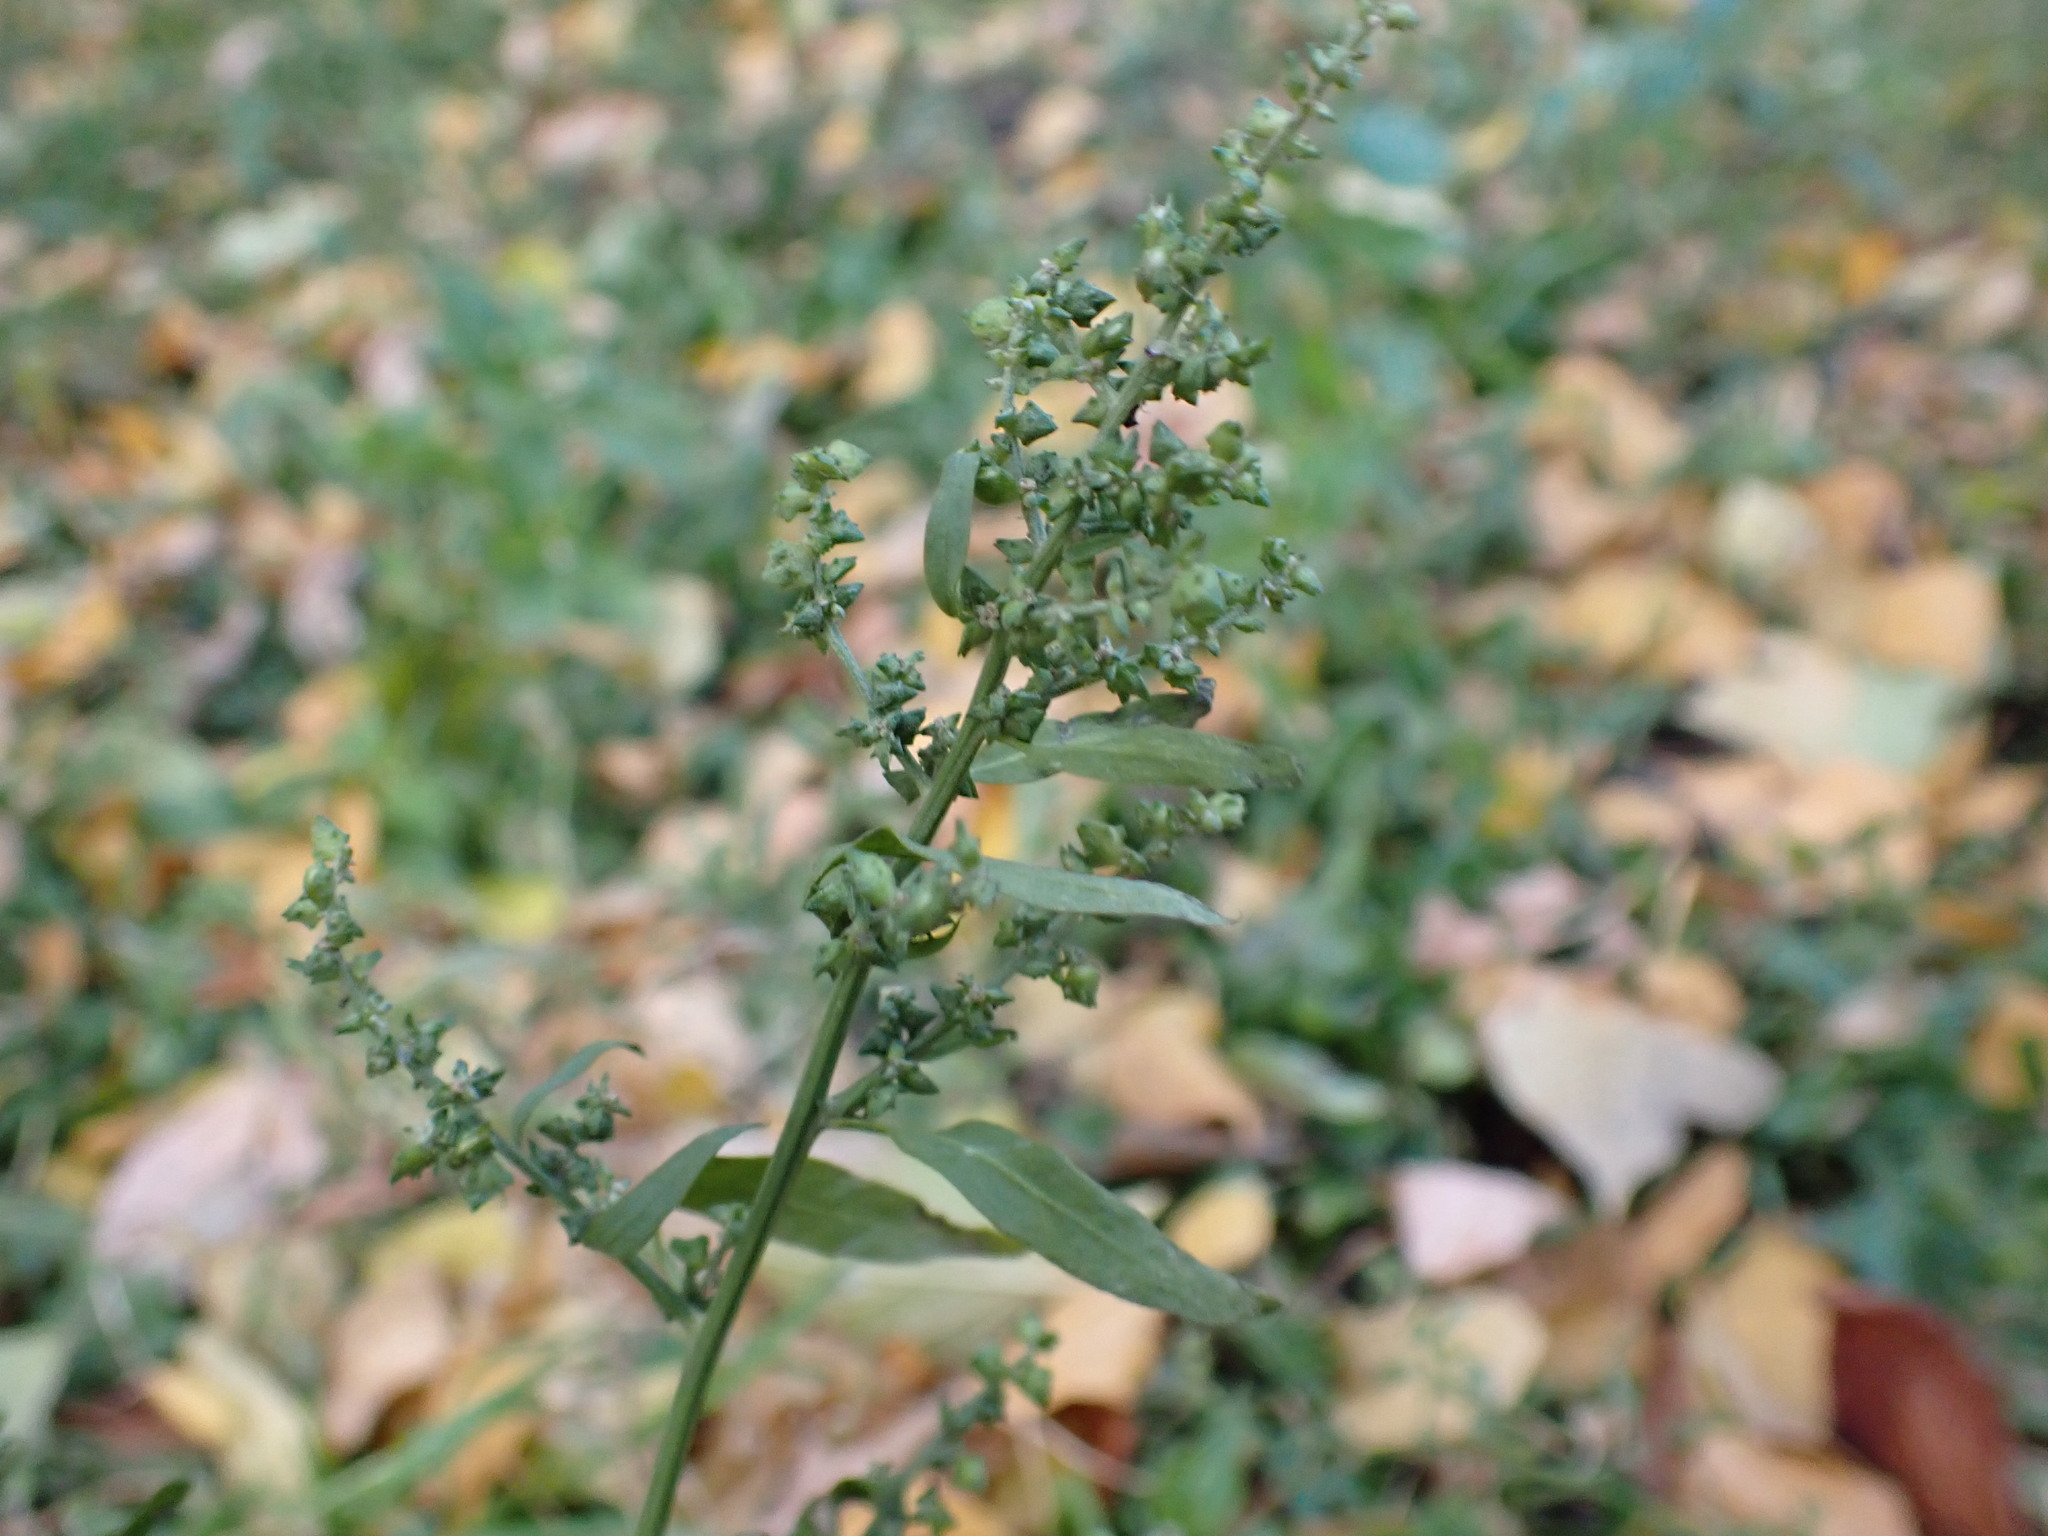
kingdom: Plantae
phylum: Tracheophyta
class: Magnoliopsida
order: Caryophyllales
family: Amaranthaceae
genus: Atriplex
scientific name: Atriplex patula
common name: Common orache
